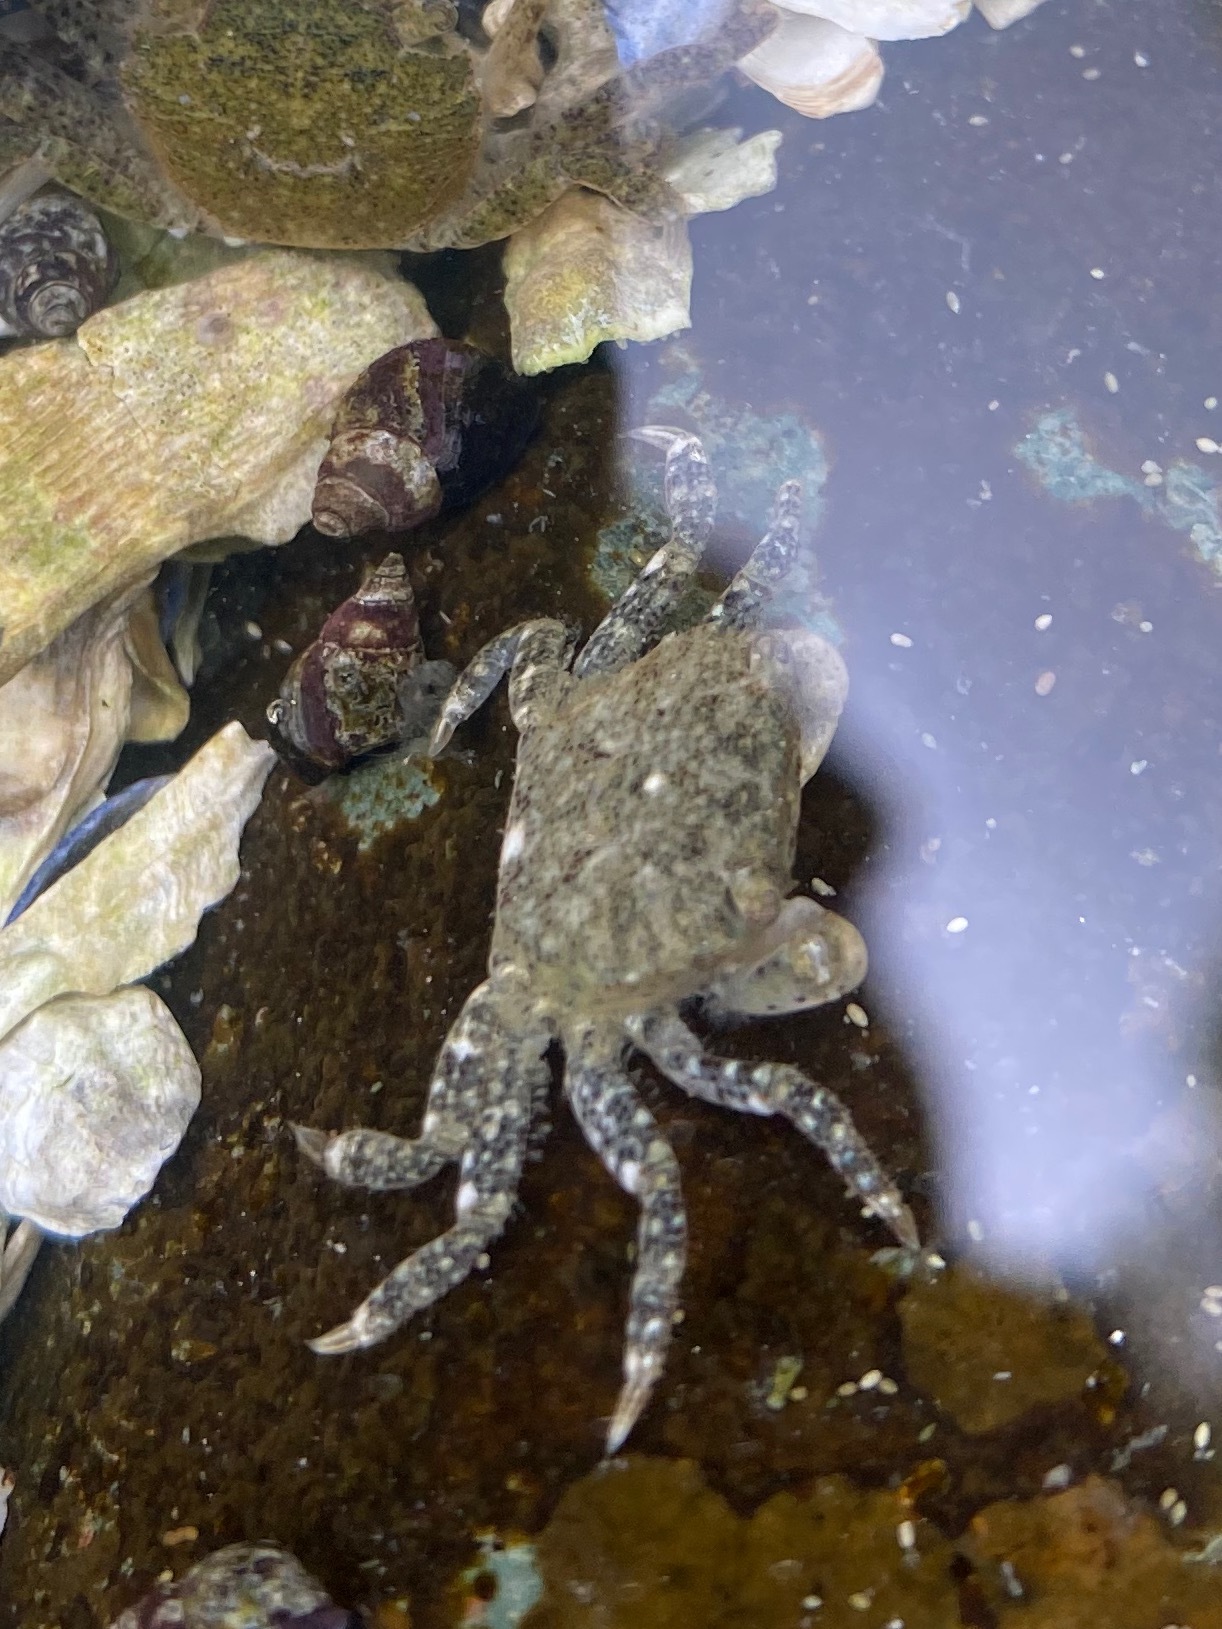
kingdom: Animalia
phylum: Arthropoda
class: Malacostraca
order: Decapoda
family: Varunidae
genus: Hemigrapsus
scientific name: Hemigrapsus oregonensis
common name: Yellow shore crab
